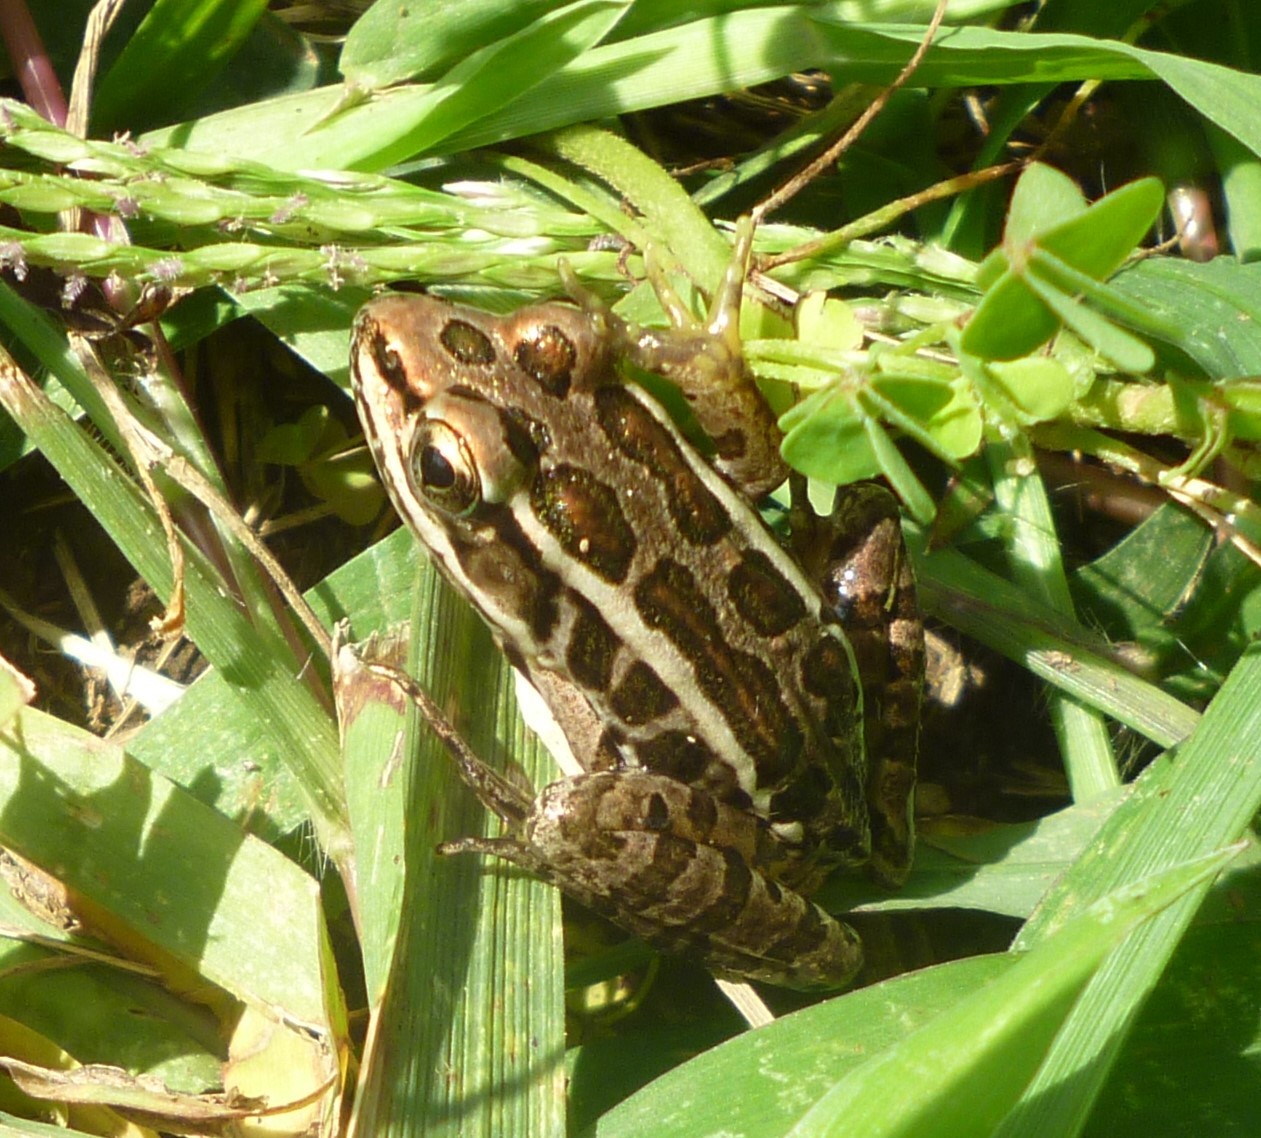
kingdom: Animalia
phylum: Chordata
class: Amphibia
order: Anura
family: Ranidae
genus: Lithobates
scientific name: Lithobates palustris
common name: Pickerel frog
